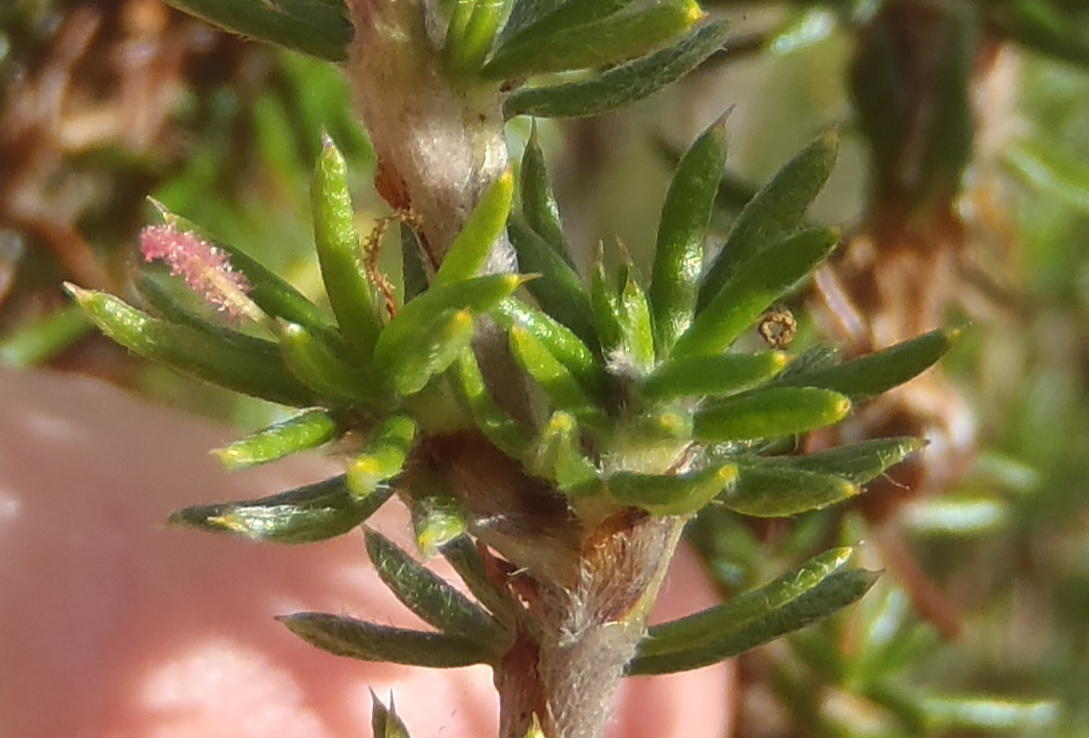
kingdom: Plantae
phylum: Tracheophyta
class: Magnoliopsida
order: Rosales
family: Rosaceae
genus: Cliffortia
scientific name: Cliffortia stricta
